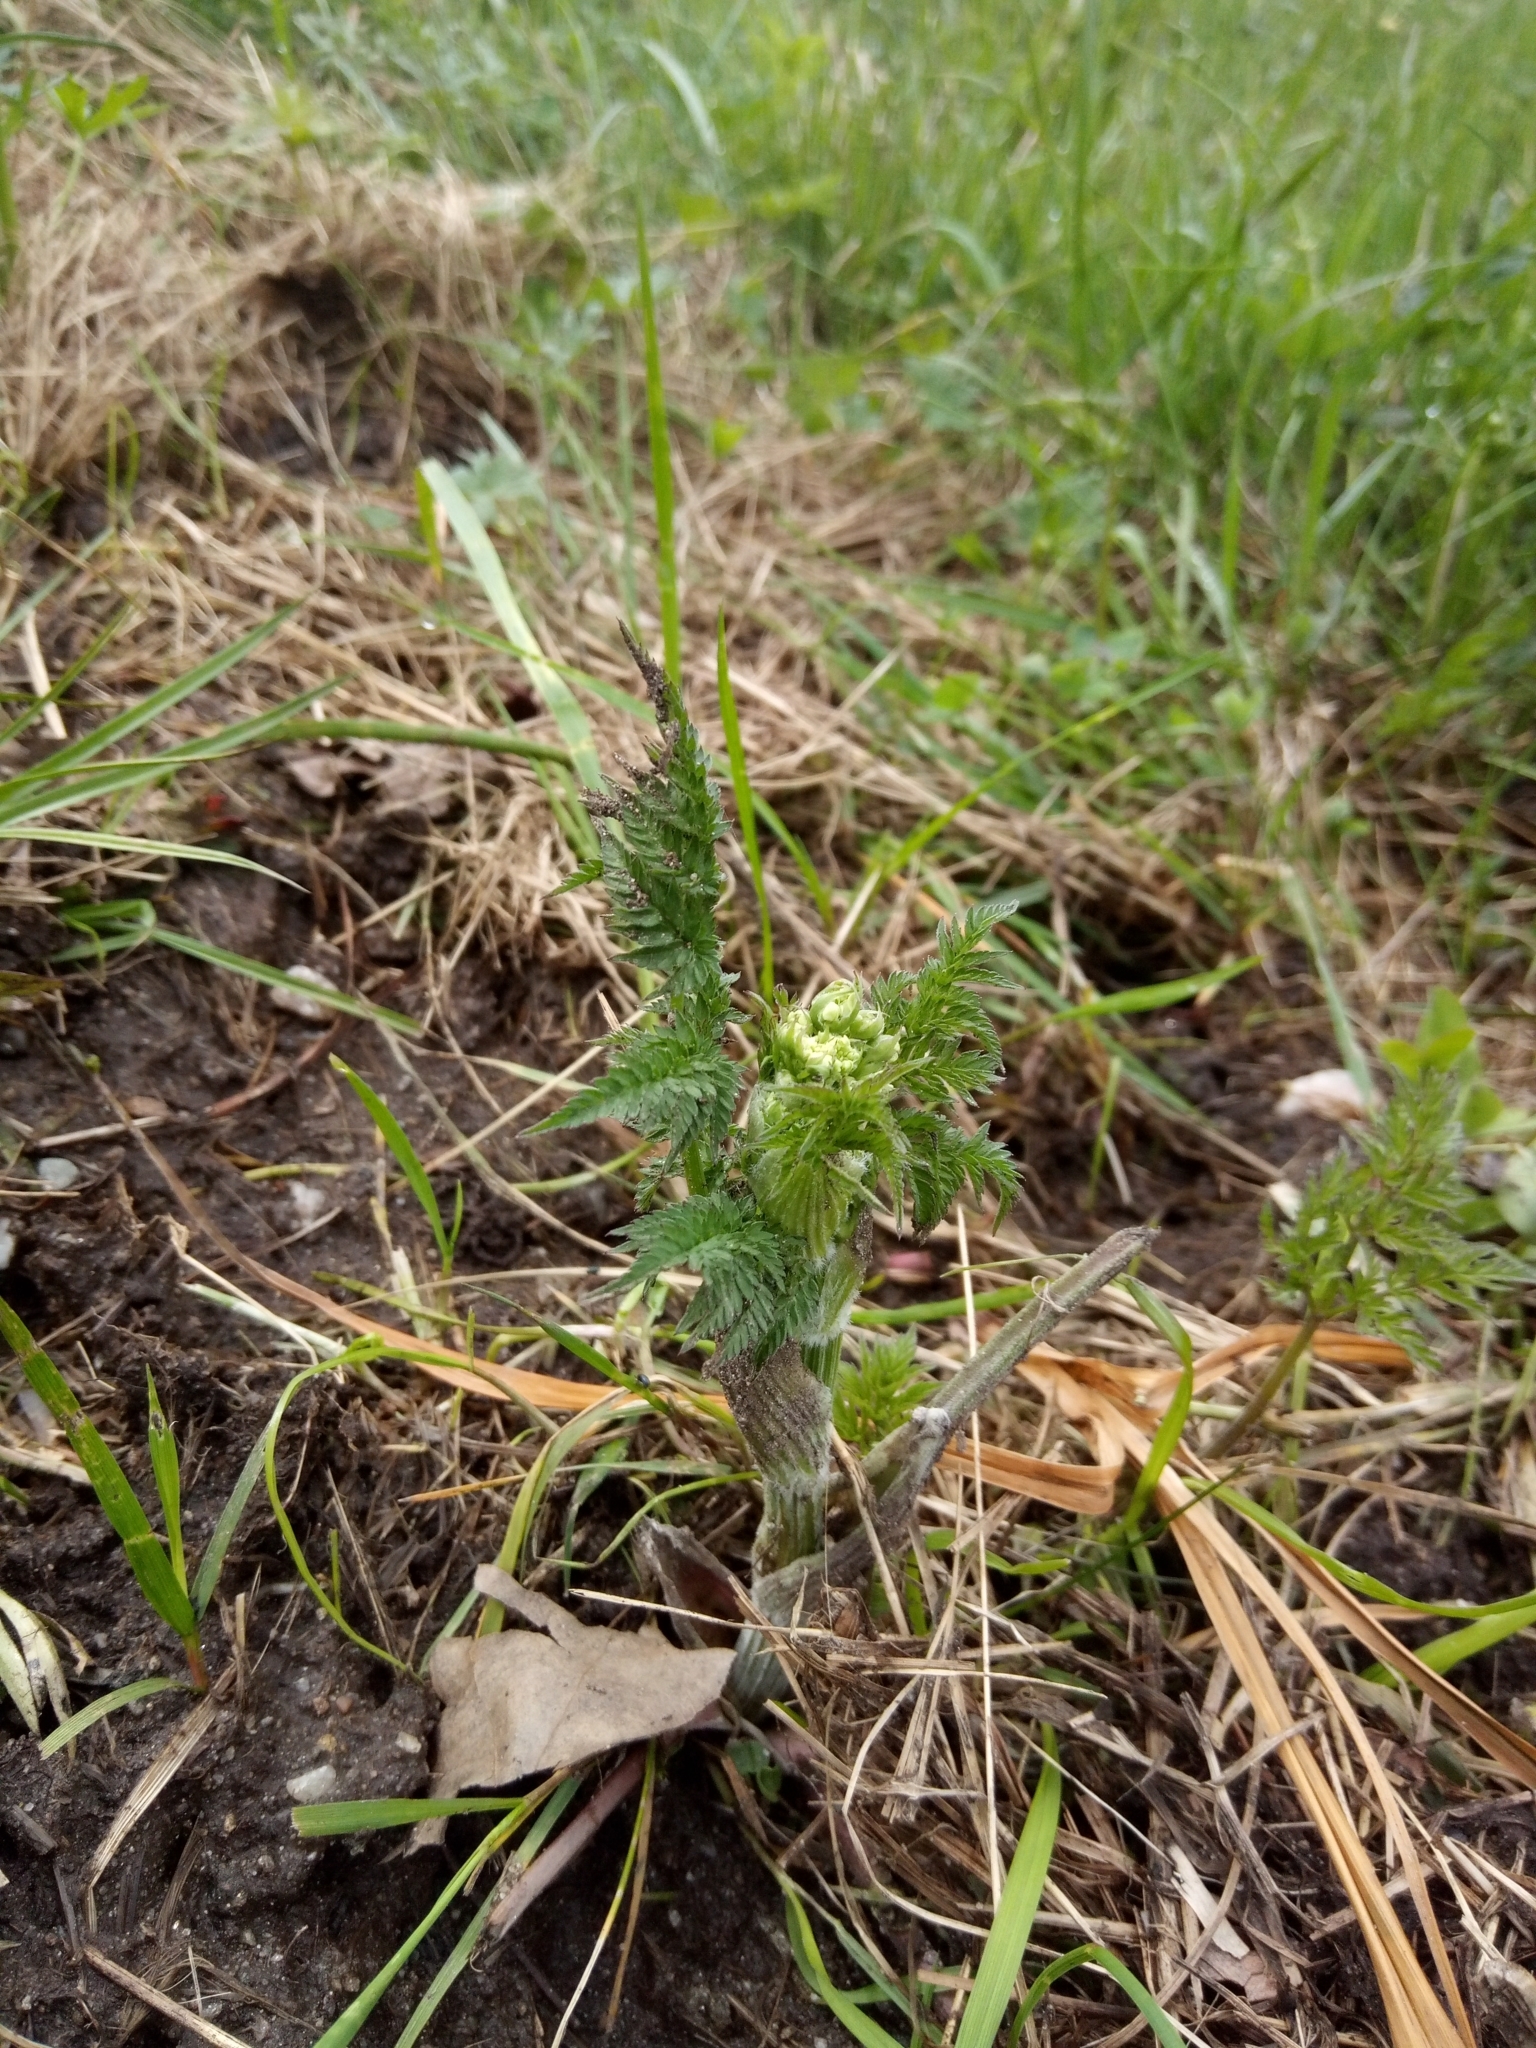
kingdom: Plantae
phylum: Tracheophyta
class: Magnoliopsida
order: Apiales
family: Apiaceae
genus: Anthriscus
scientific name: Anthriscus sylvestris
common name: Cow parsley
